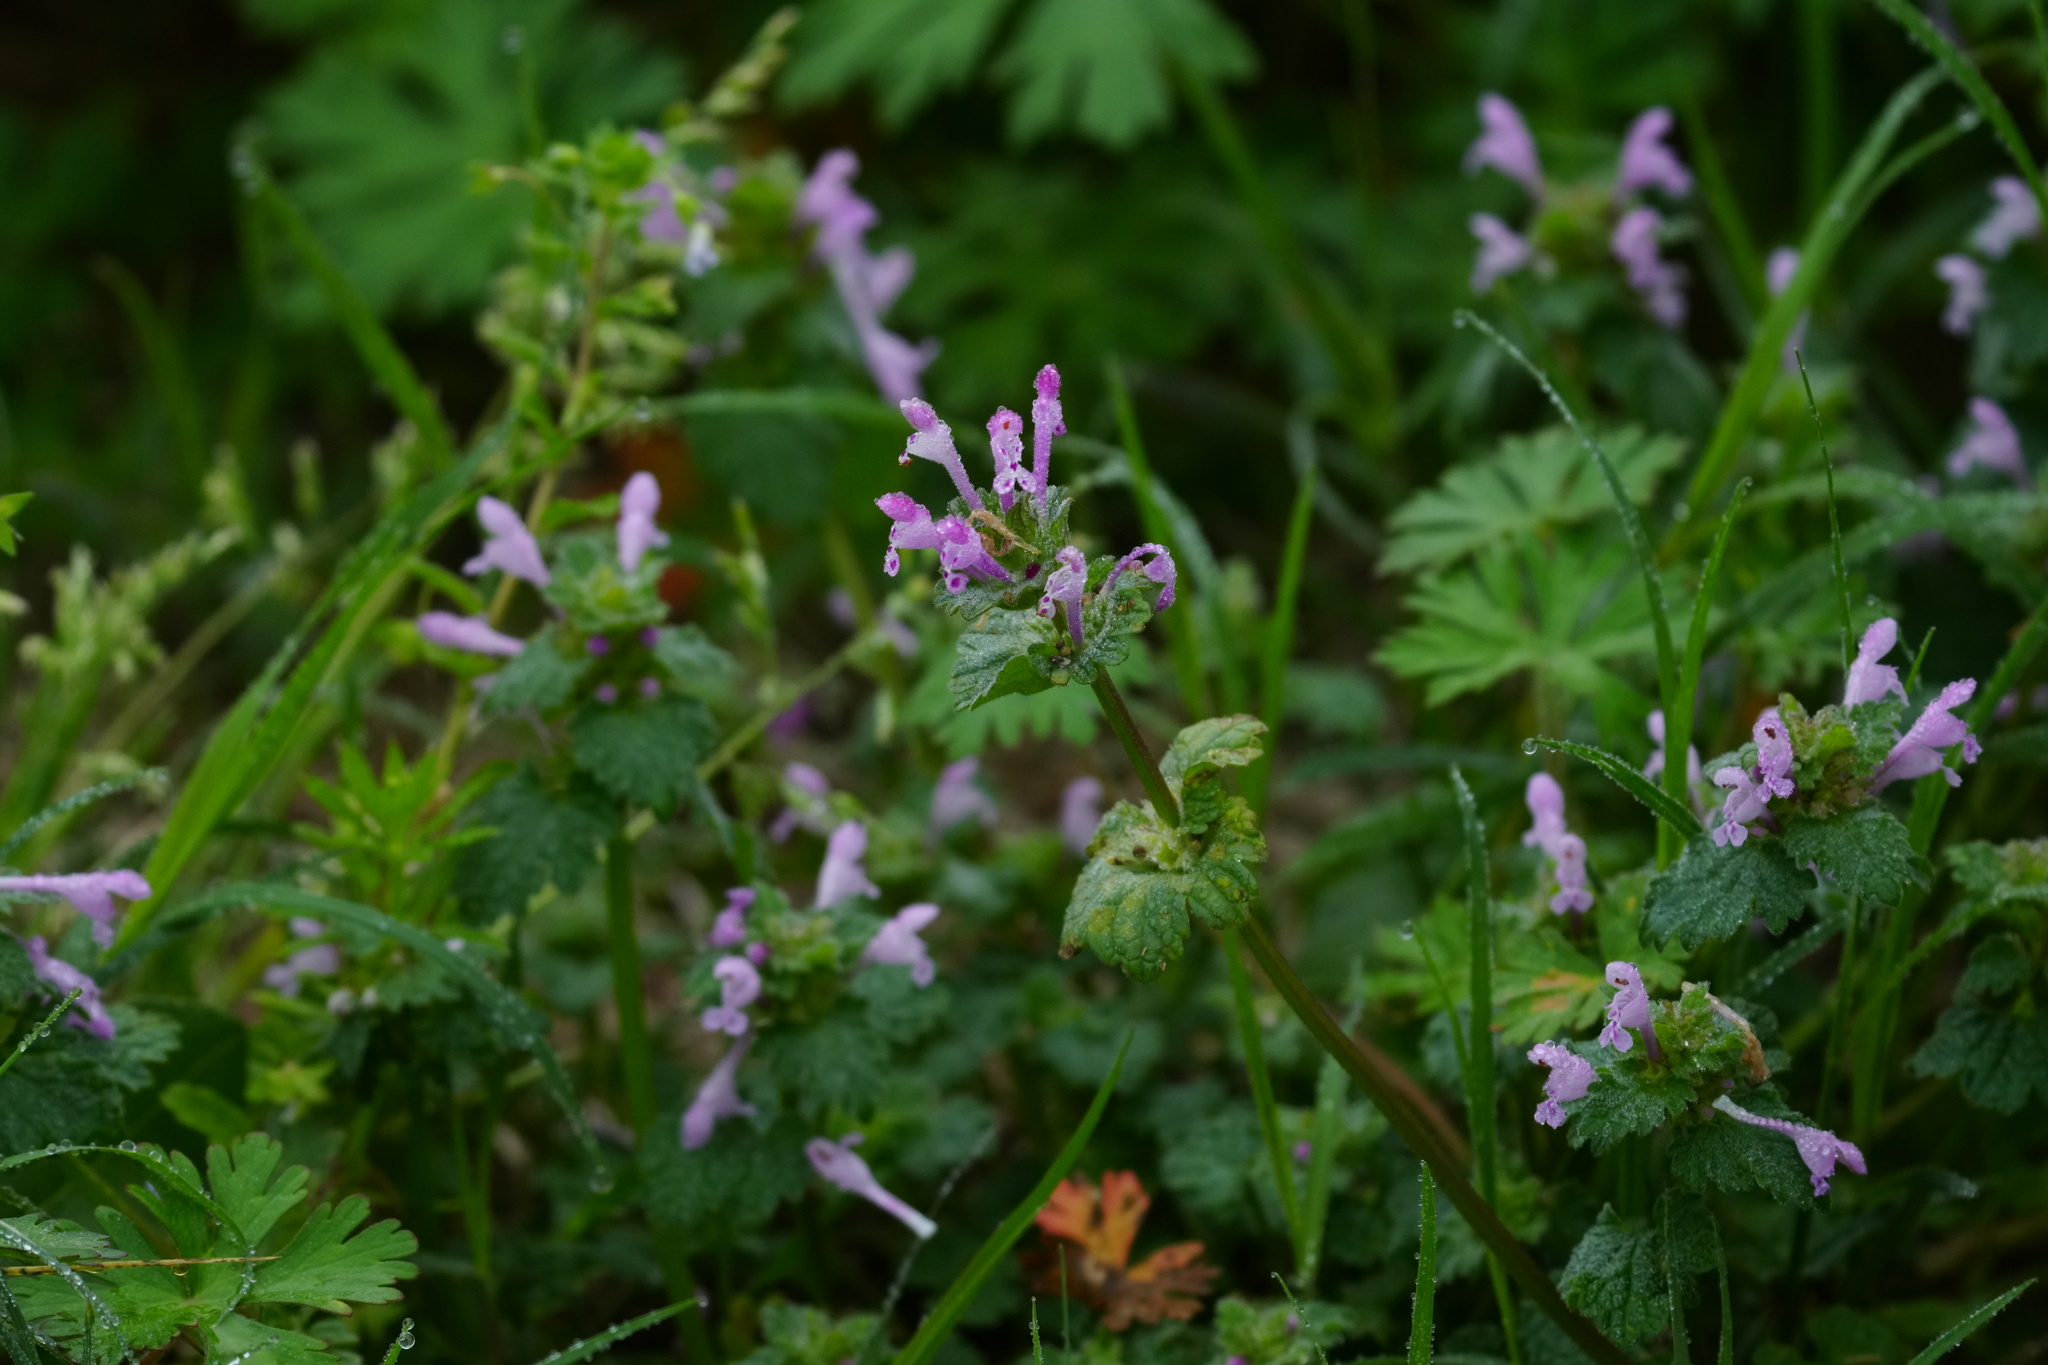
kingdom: Plantae
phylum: Tracheophyta
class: Magnoliopsida
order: Lamiales
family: Lamiaceae
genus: Lamium
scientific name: Lamium amplexicaule
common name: Henbit dead-nettle
